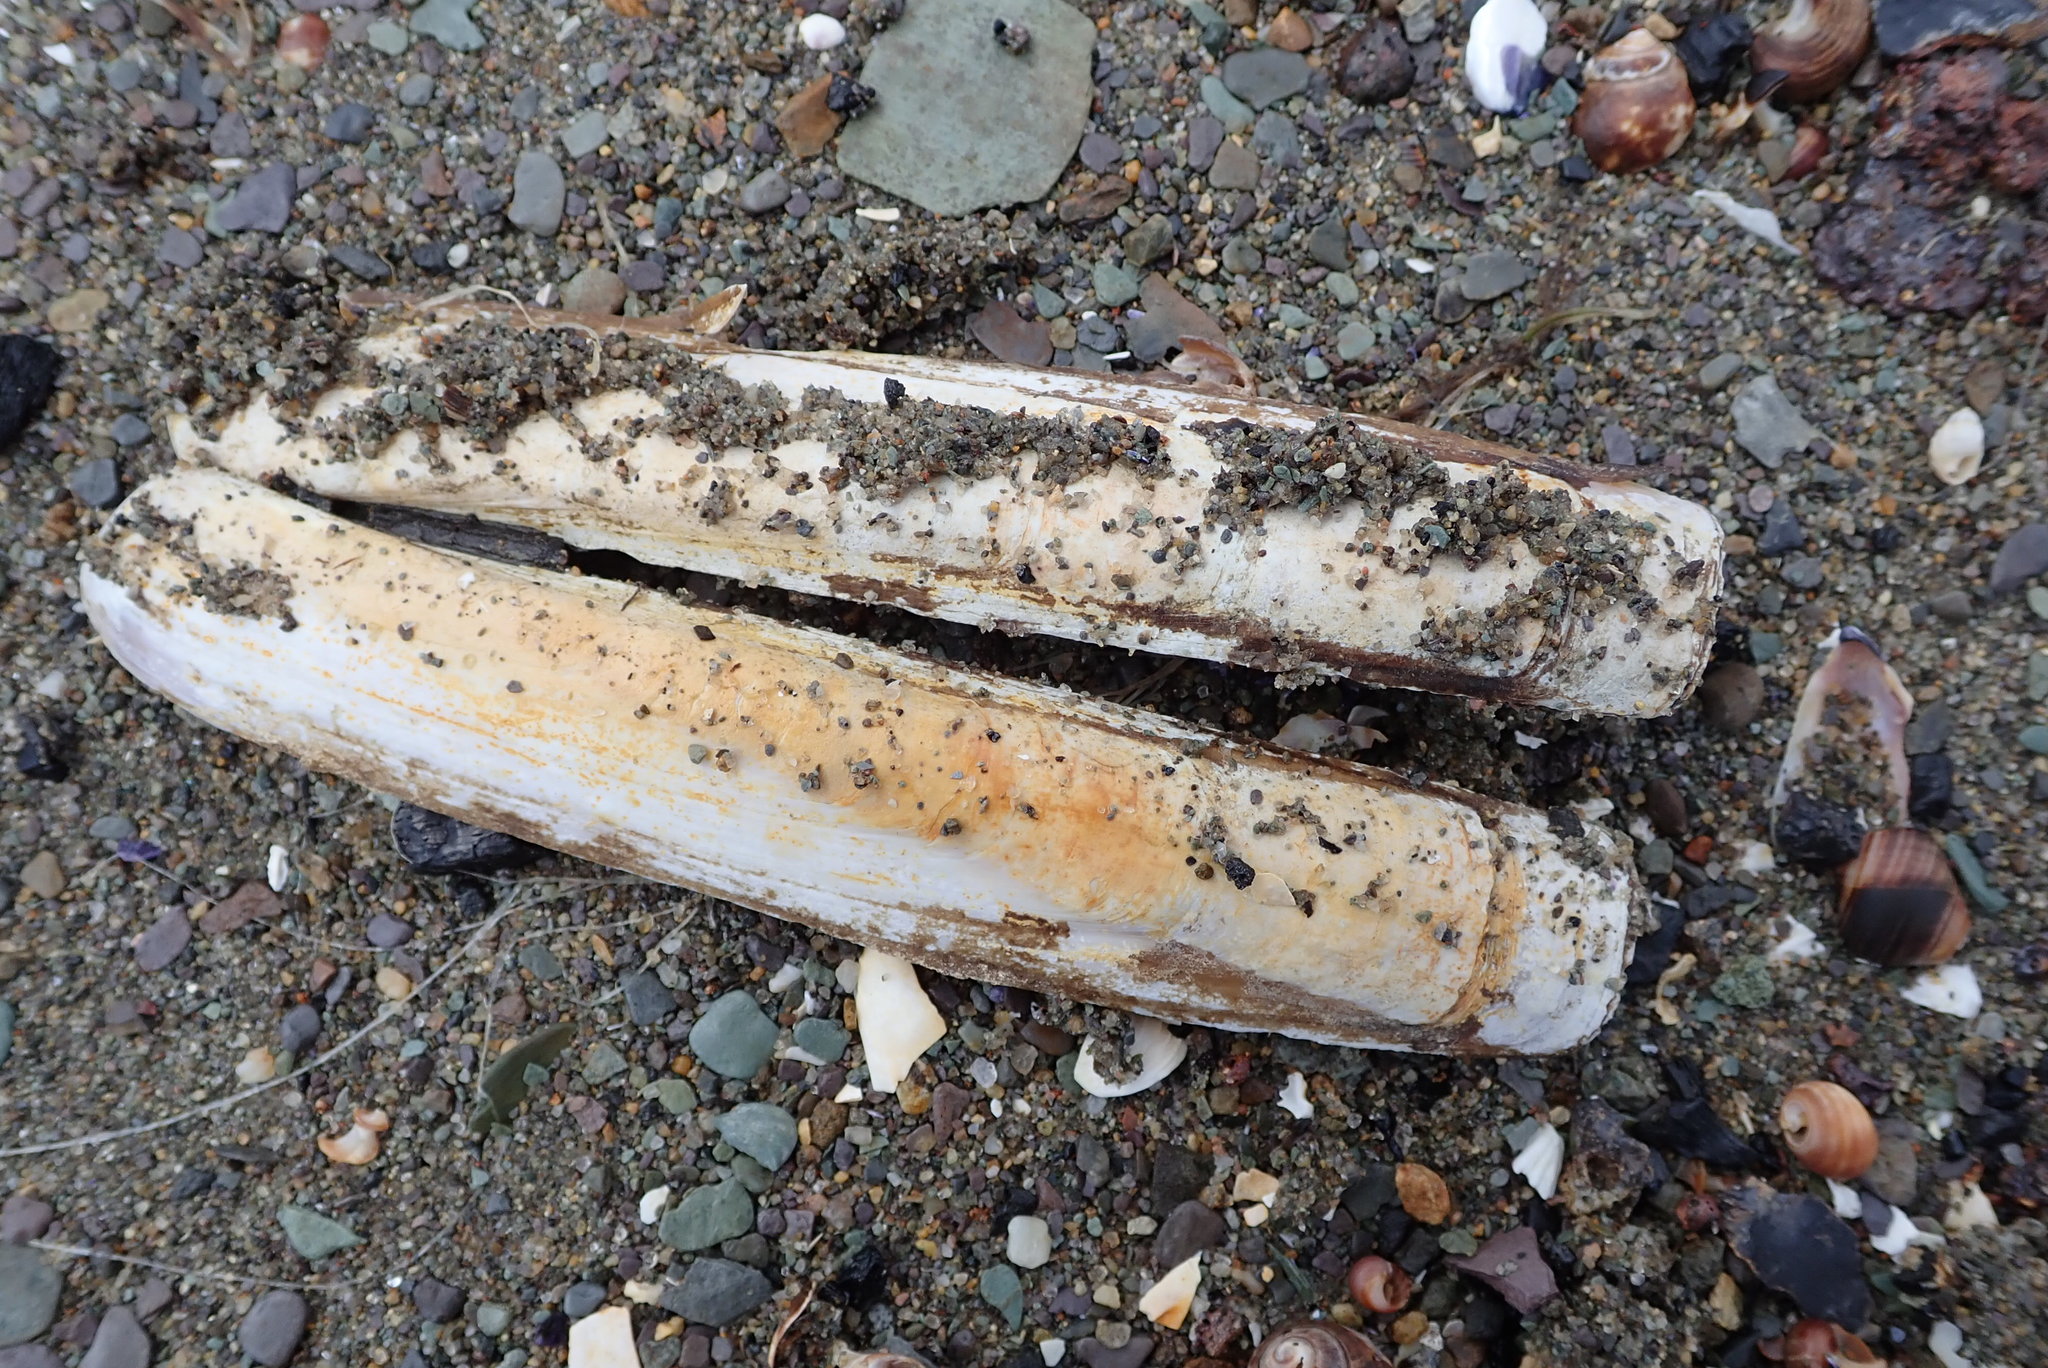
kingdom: Animalia
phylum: Mollusca
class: Bivalvia
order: Adapedonta
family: Pharidae
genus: Ensis
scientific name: Ensis leei
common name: American jack knife clam
